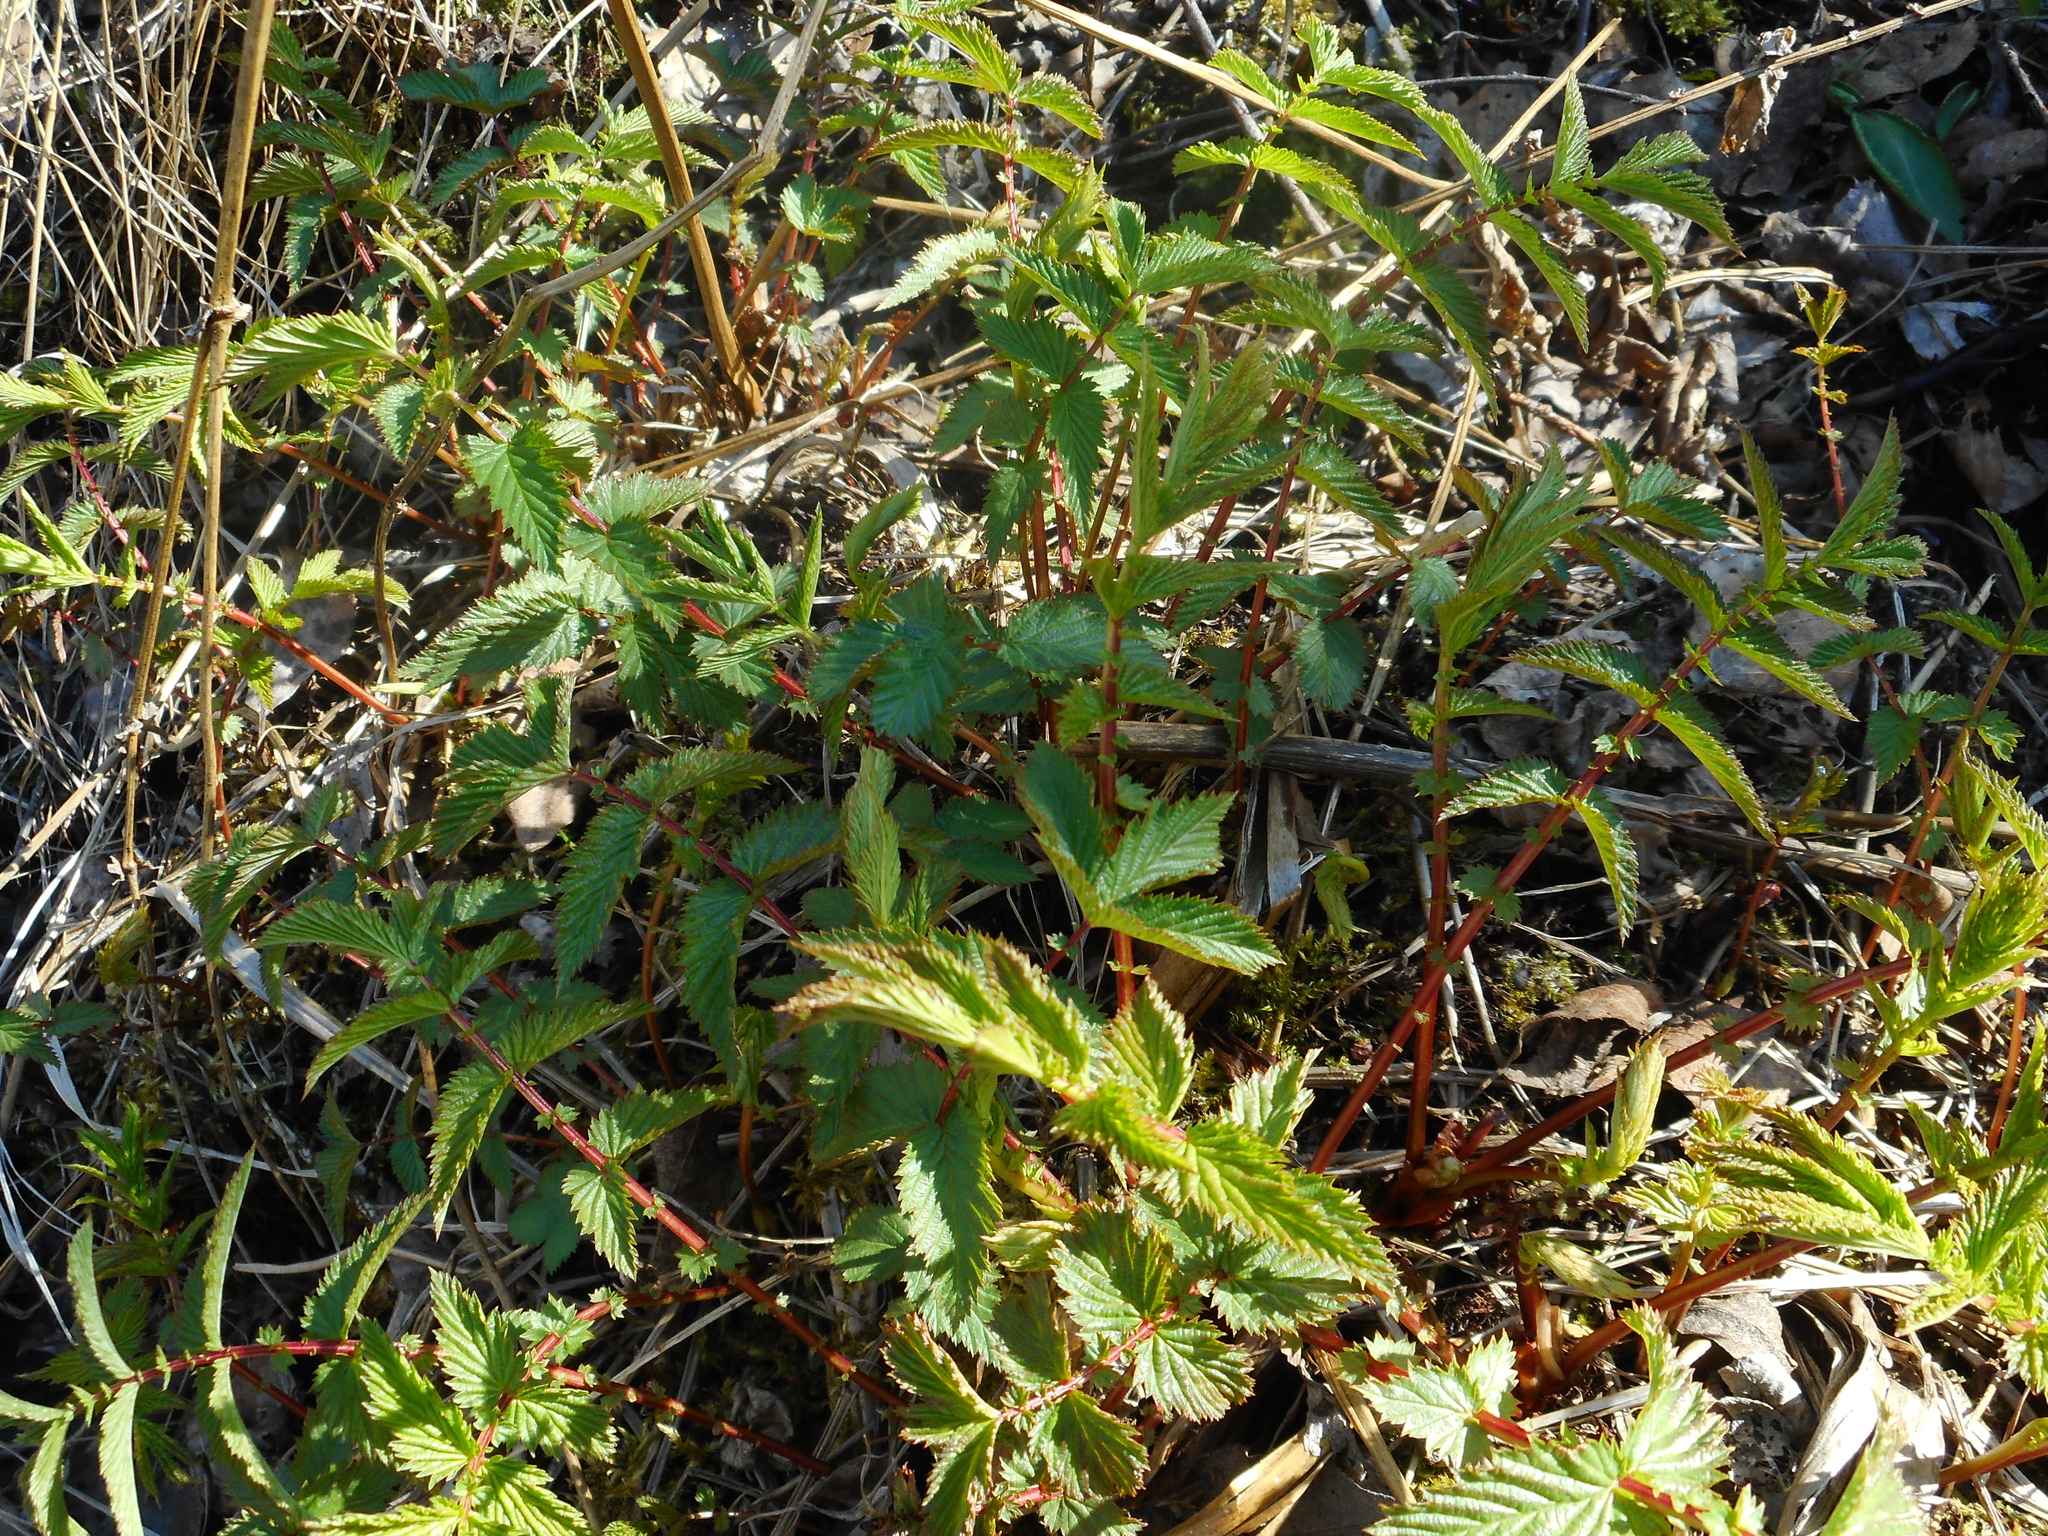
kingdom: Plantae
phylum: Tracheophyta
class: Magnoliopsida
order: Rosales
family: Rosaceae
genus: Filipendula
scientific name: Filipendula ulmaria
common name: Meadowsweet
